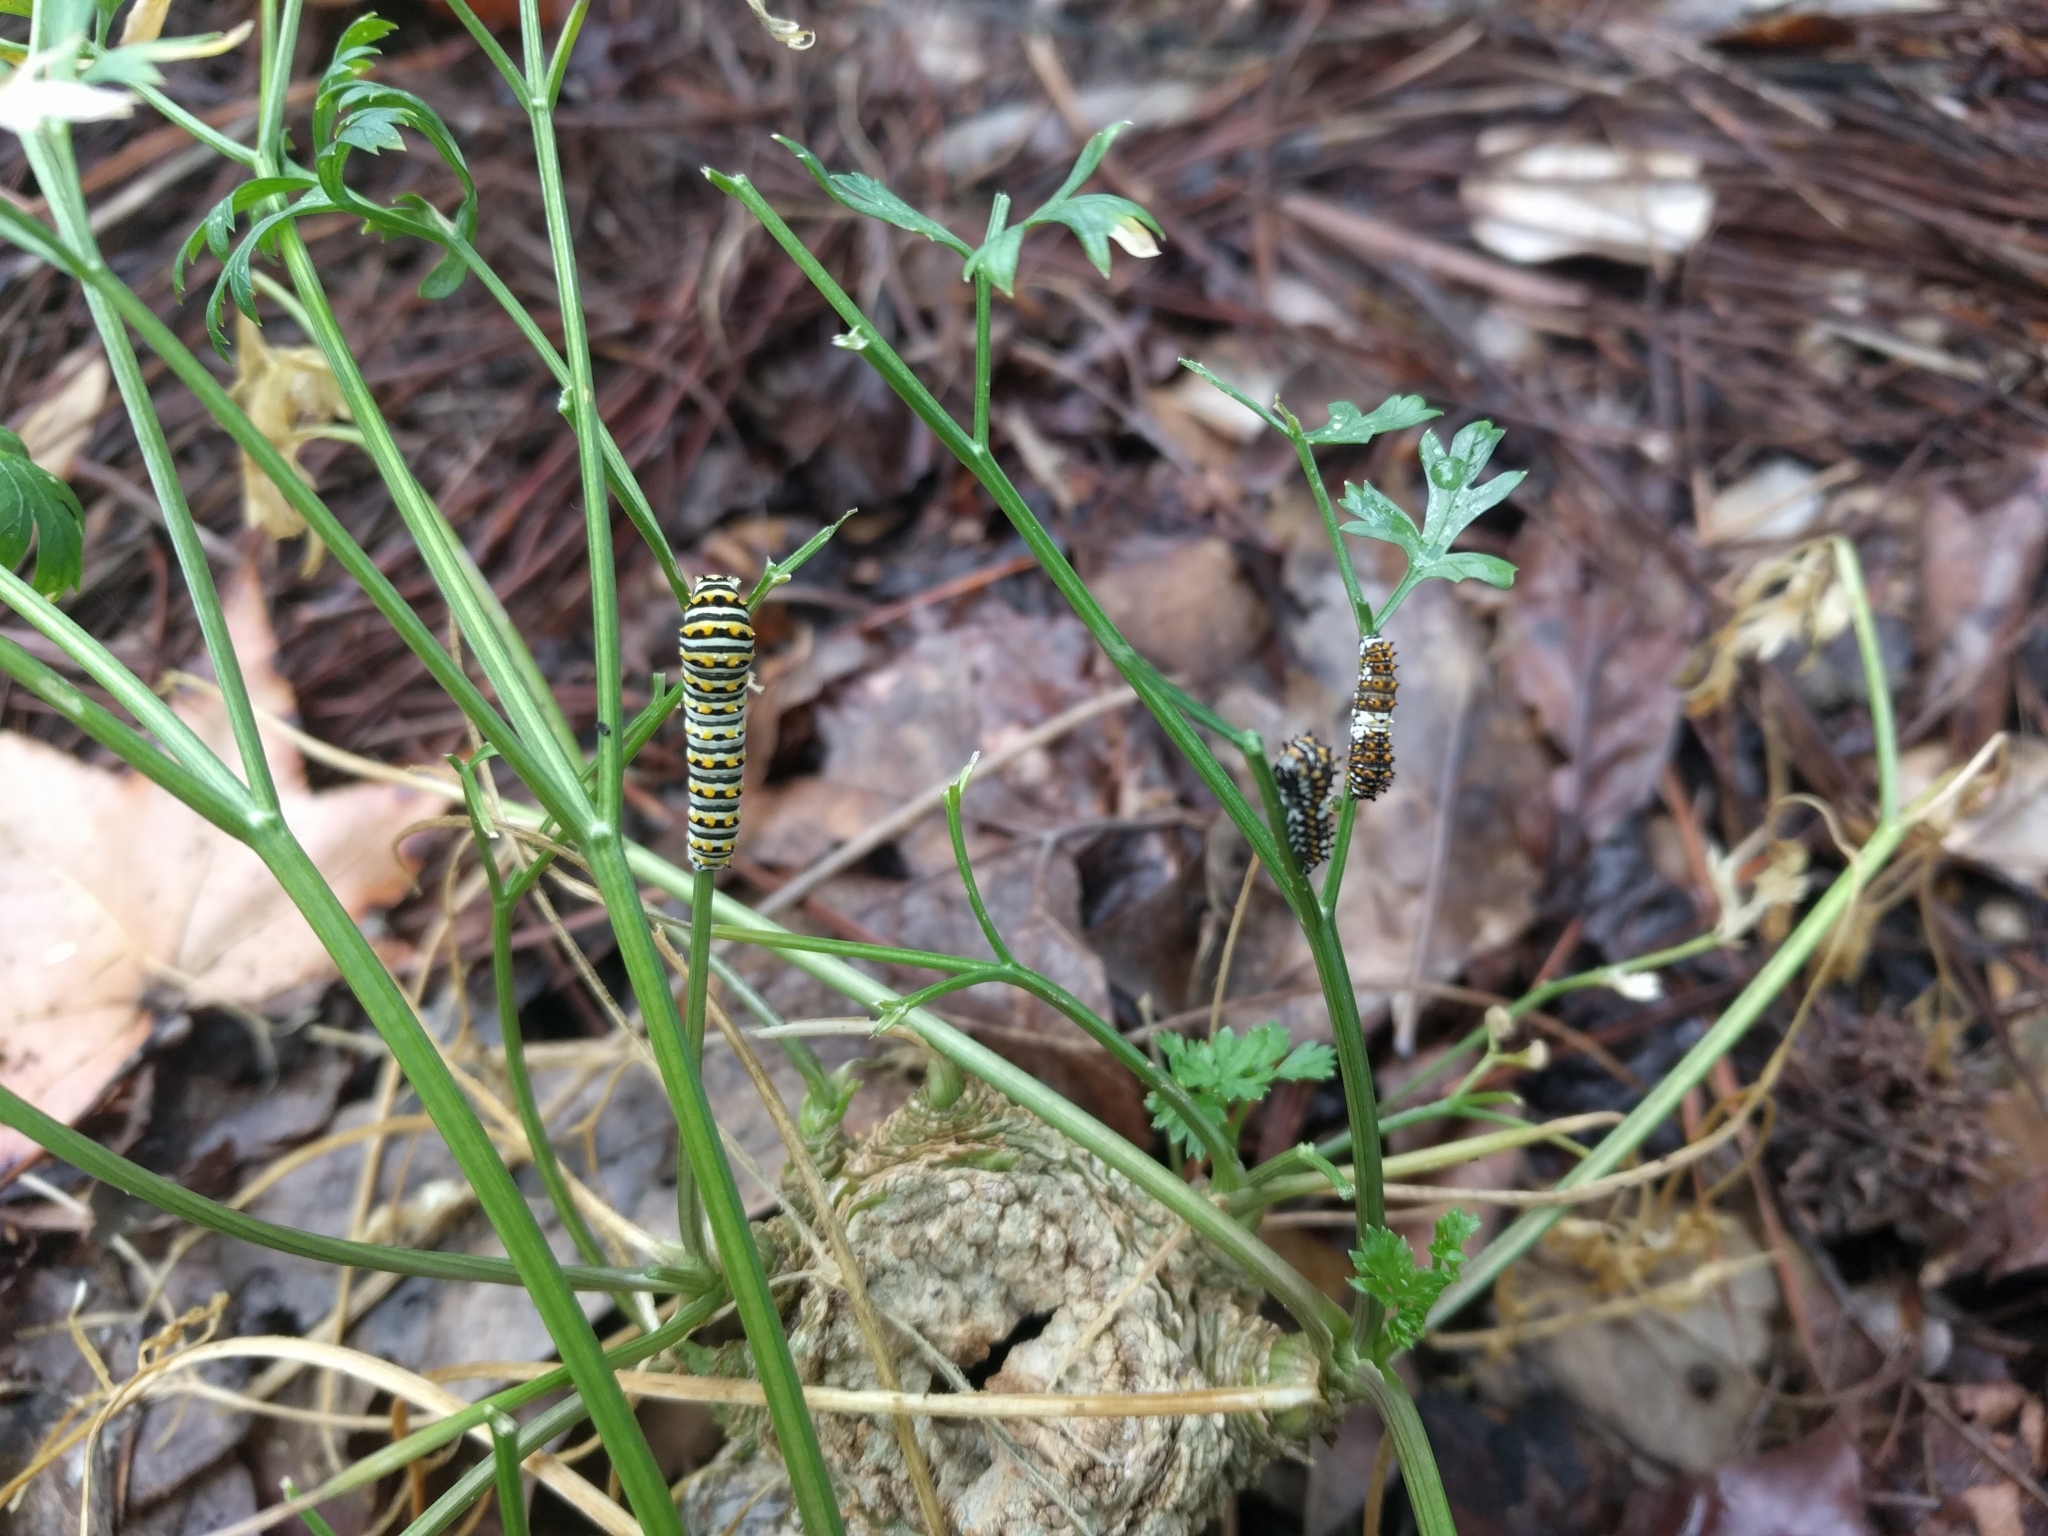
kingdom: Animalia
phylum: Arthropoda
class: Insecta
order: Lepidoptera
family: Papilionidae
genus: Papilio
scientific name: Papilio polyxenes
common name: Black swallowtail
